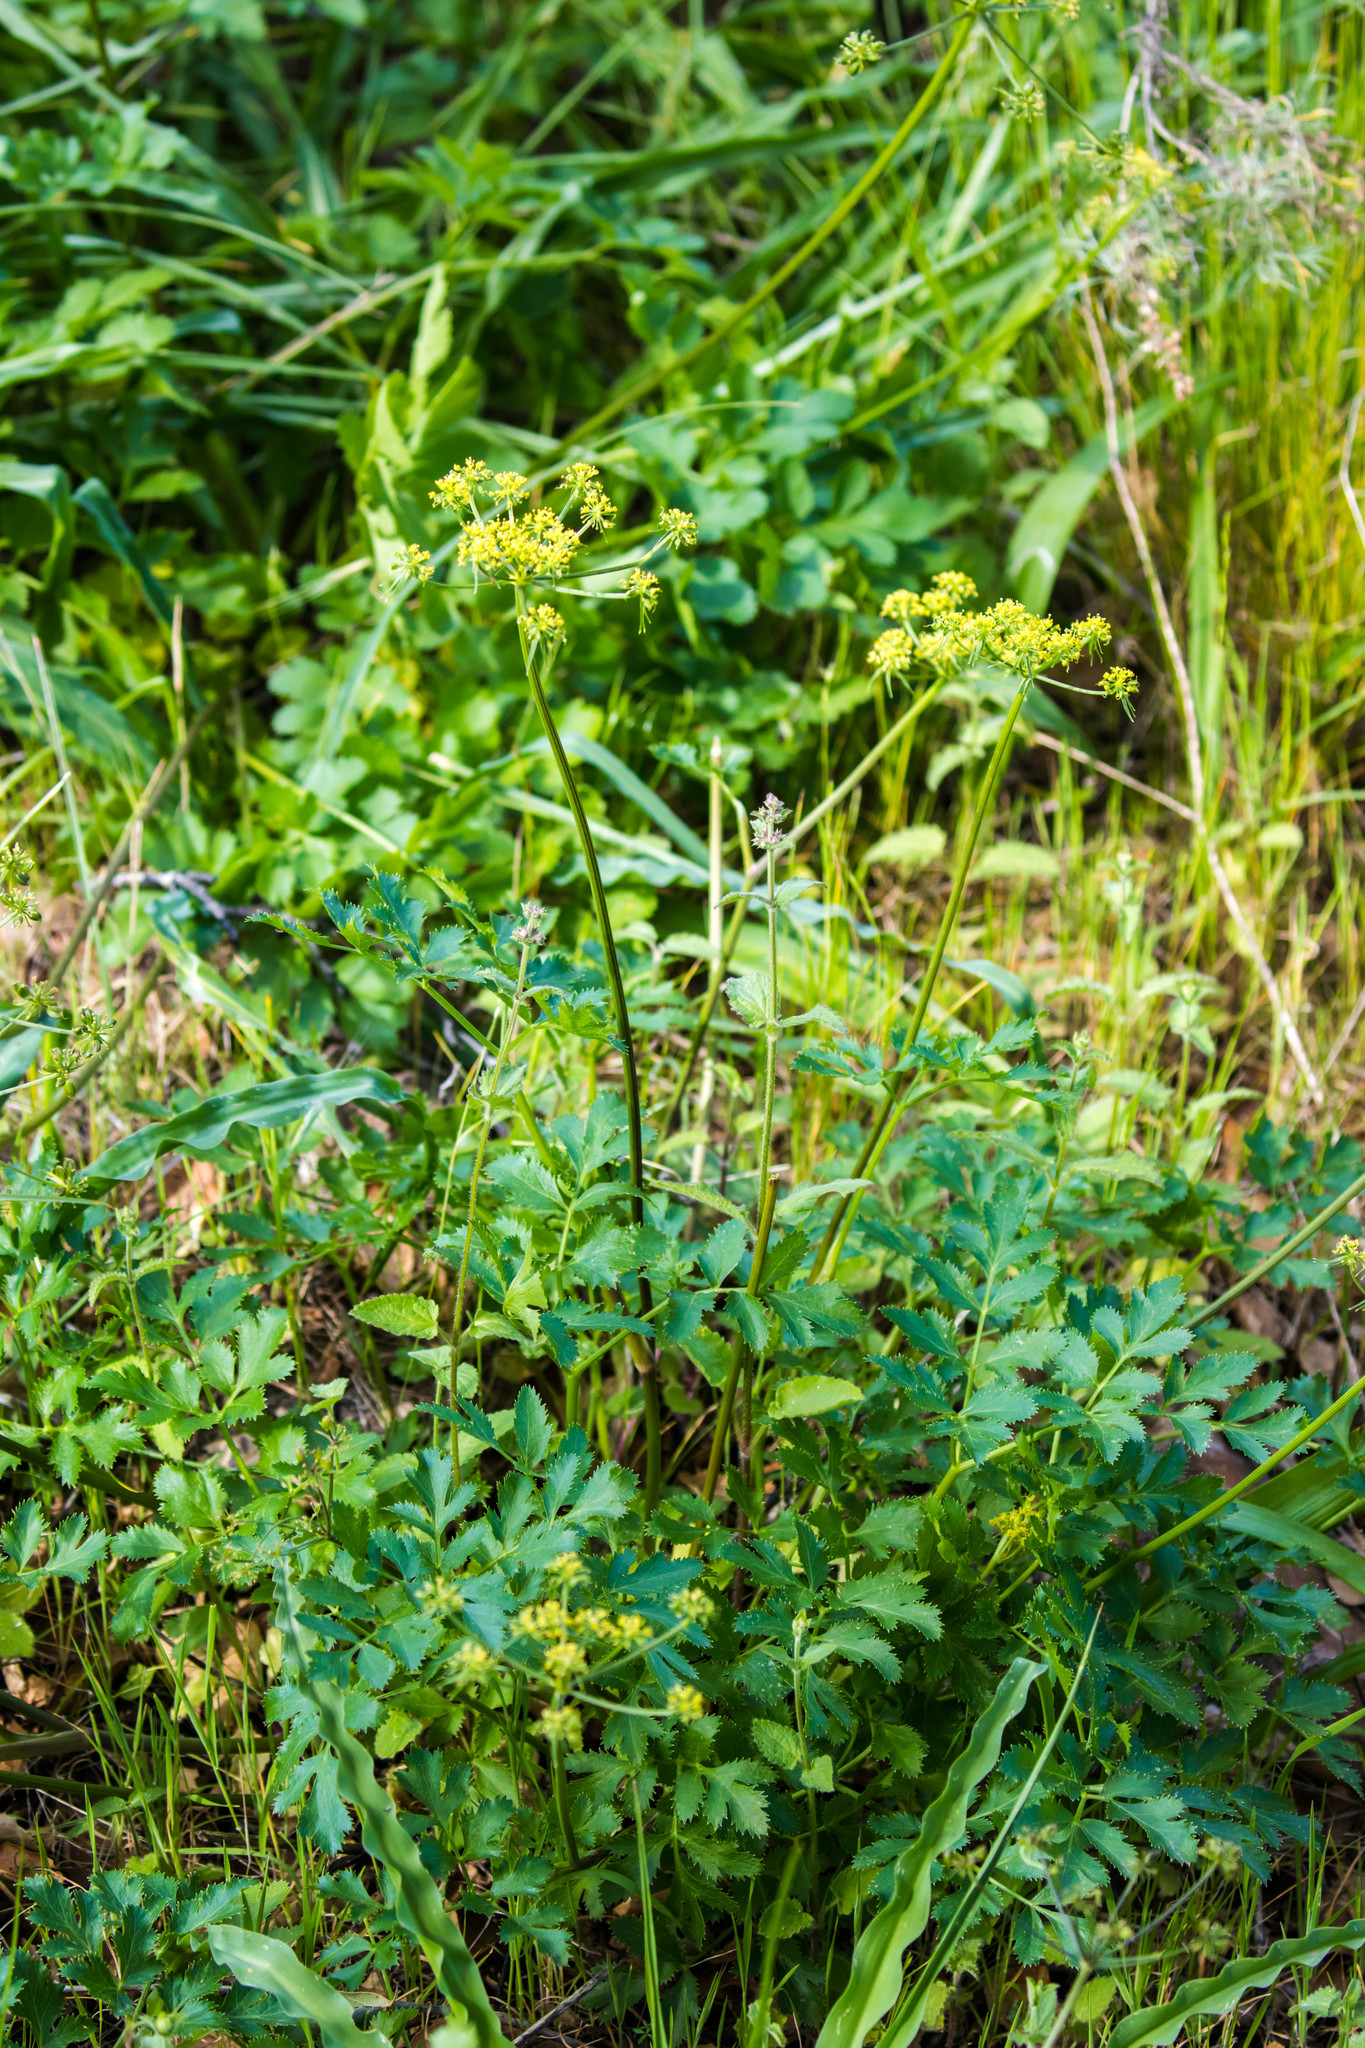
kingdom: Plantae
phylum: Tracheophyta
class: Magnoliopsida
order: Apiales
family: Apiaceae
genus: Tauschia
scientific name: Tauschia hartwegii
